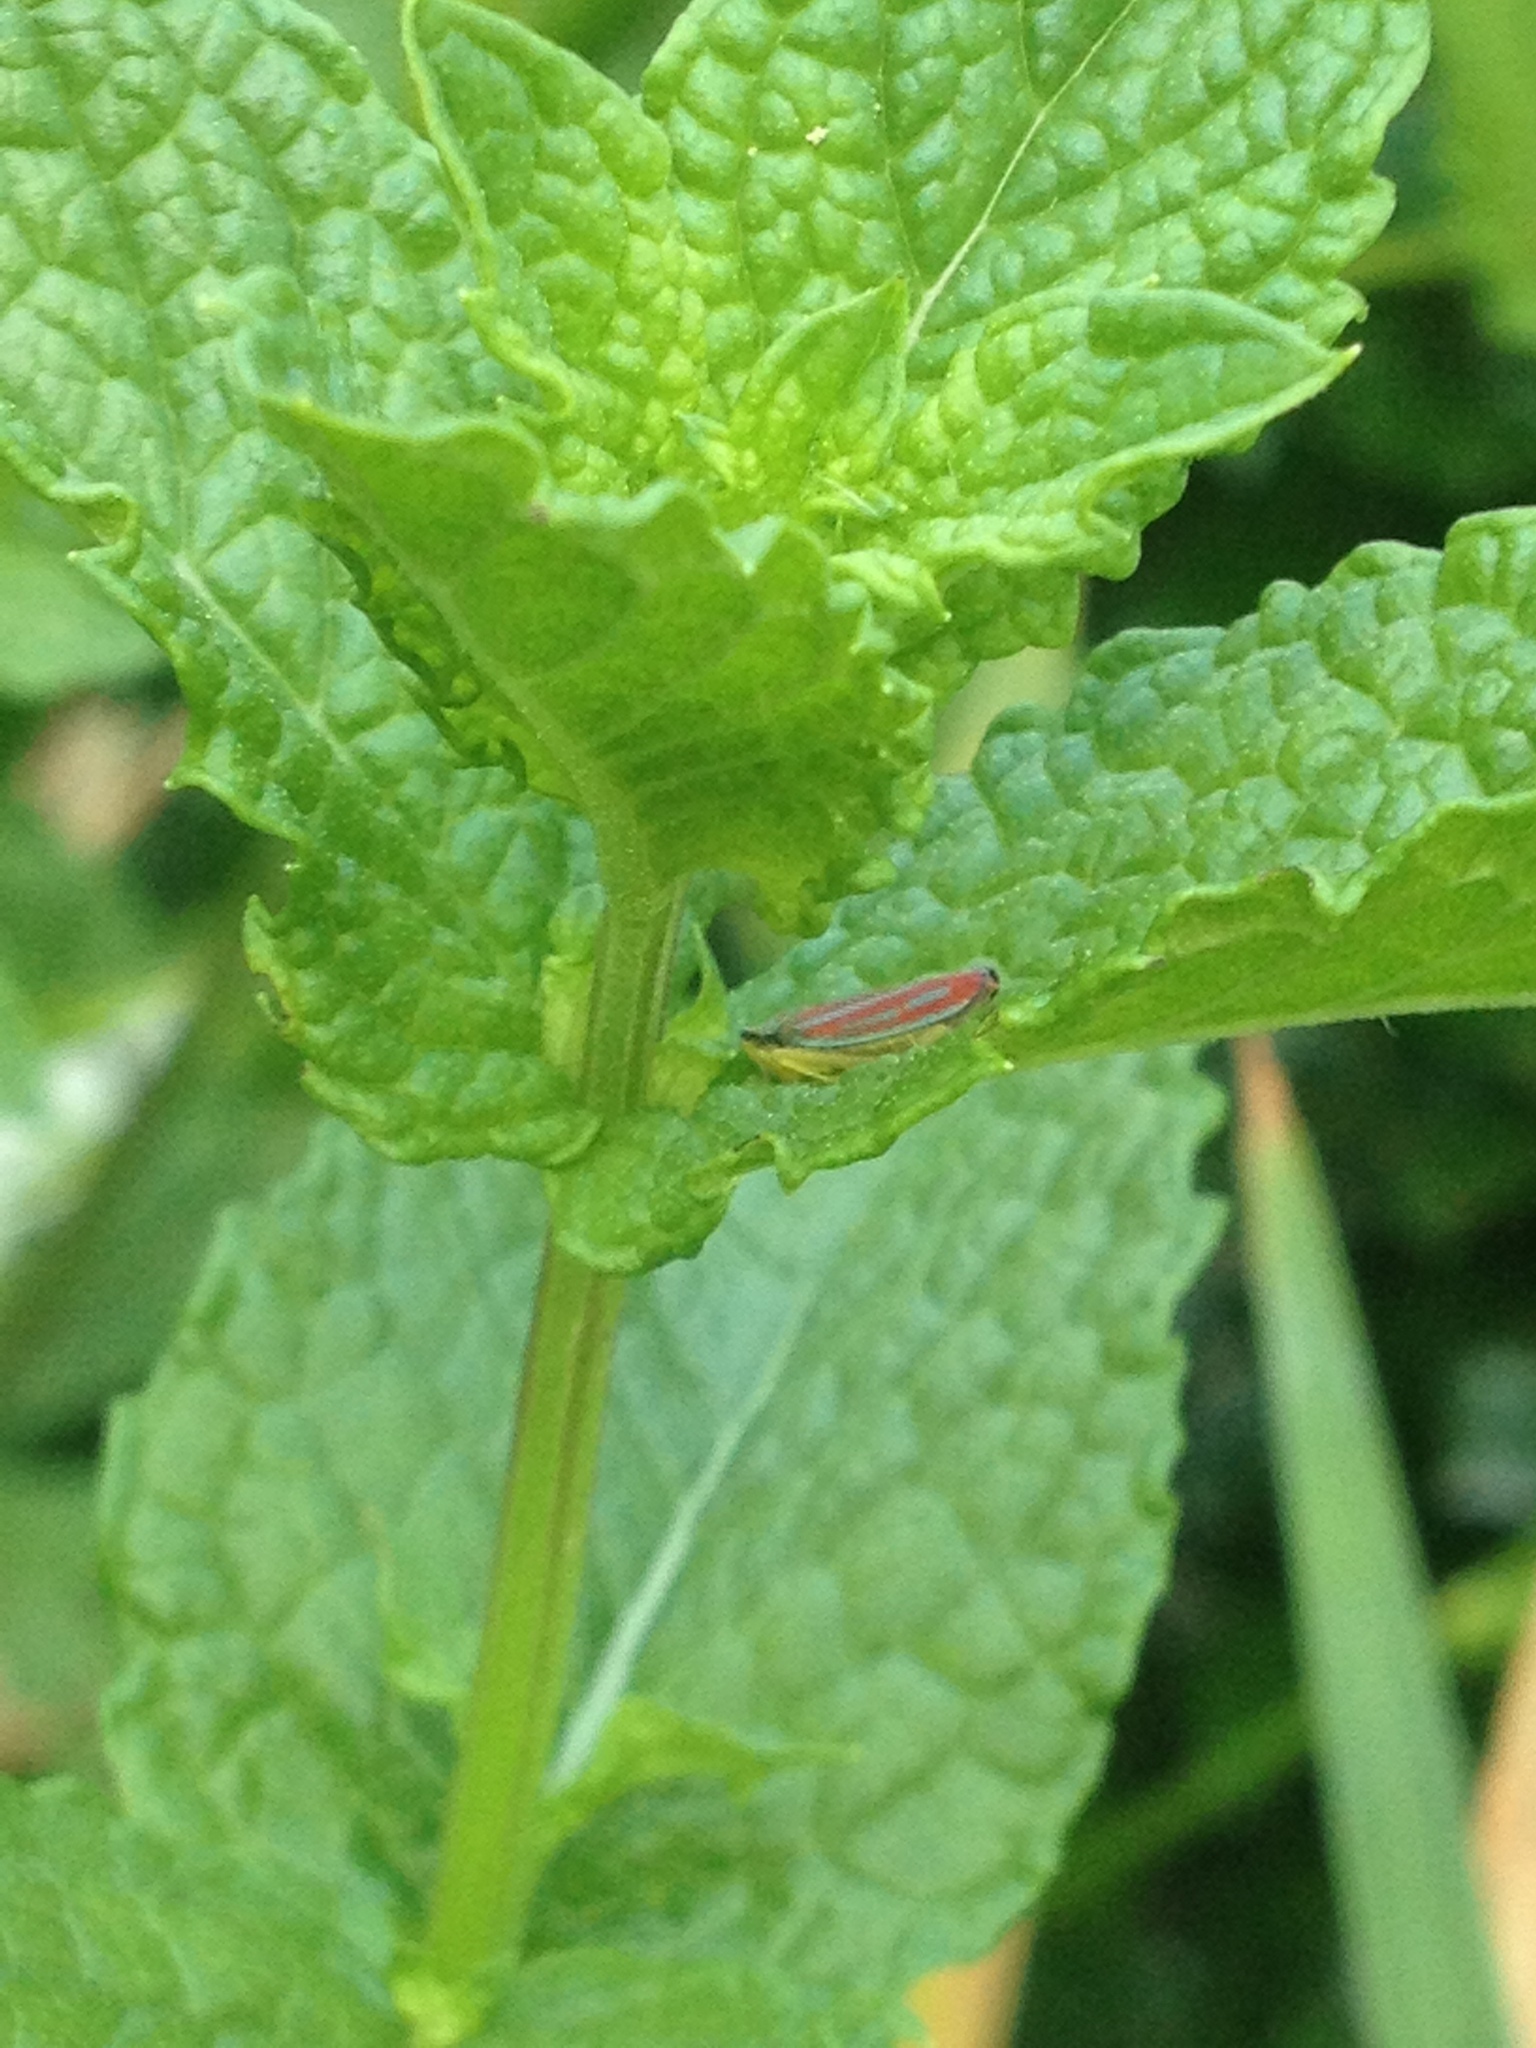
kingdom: Animalia
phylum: Arthropoda
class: Insecta
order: Hemiptera
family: Cicadellidae
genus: Graphocephala
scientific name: Graphocephala coccinea
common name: Candy-striped leafhopper
